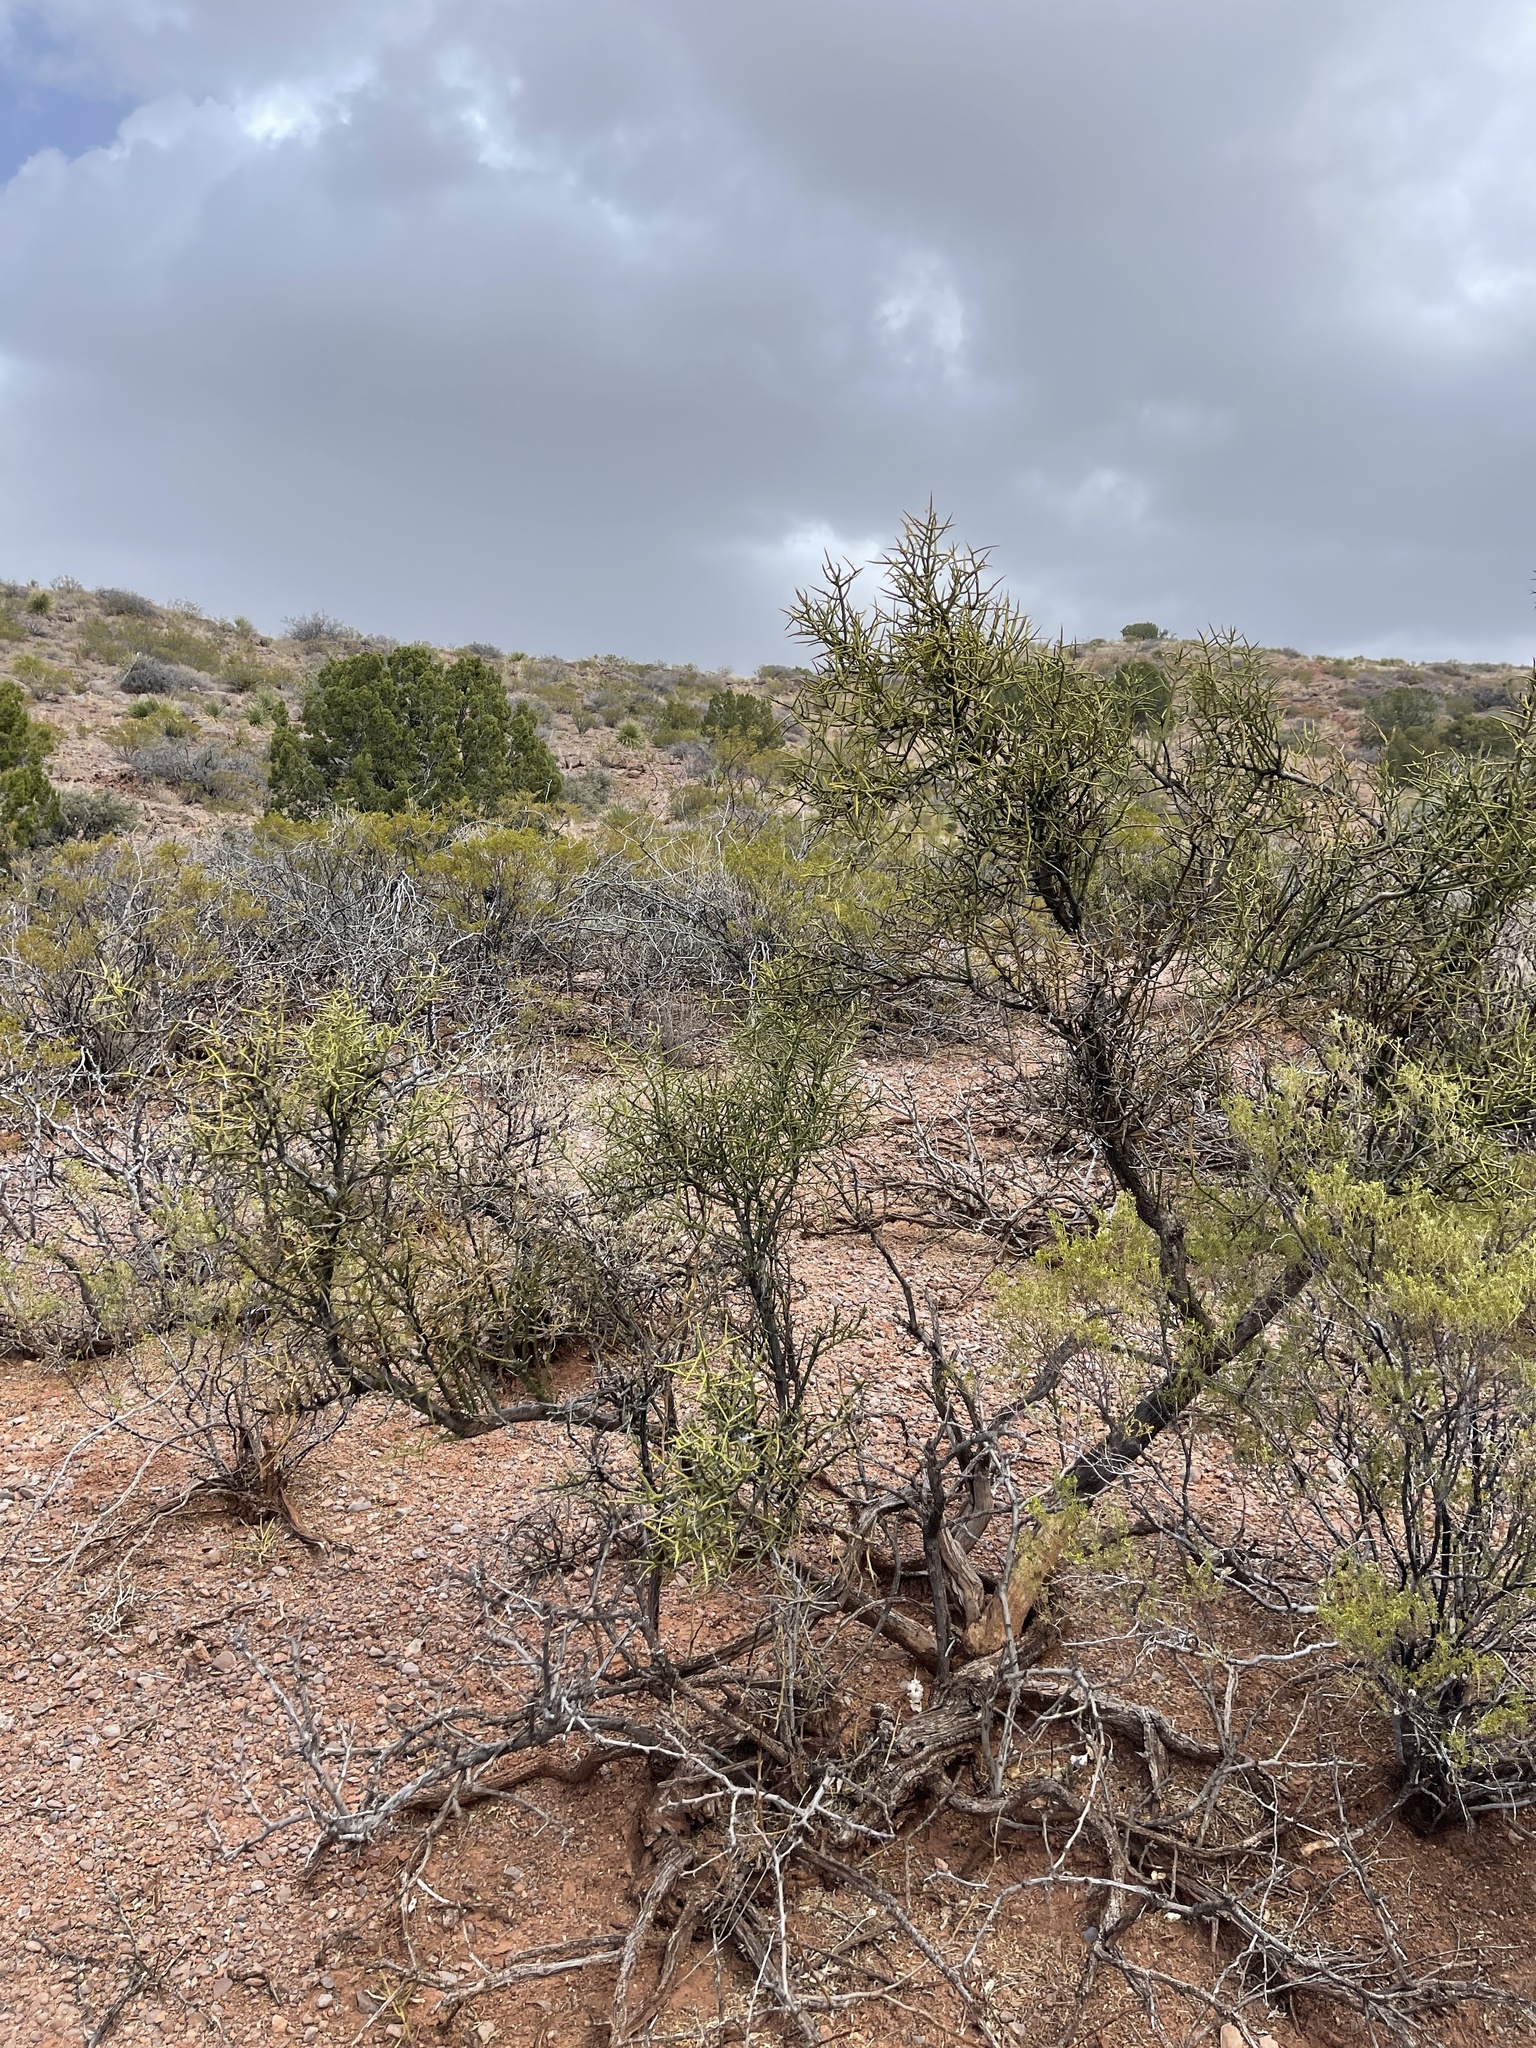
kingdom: Plantae
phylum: Tracheophyta
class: Magnoliopsida
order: Brassicales
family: Koeberliniaceae
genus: Koeberlinia
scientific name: Koeberlinia spinosa
